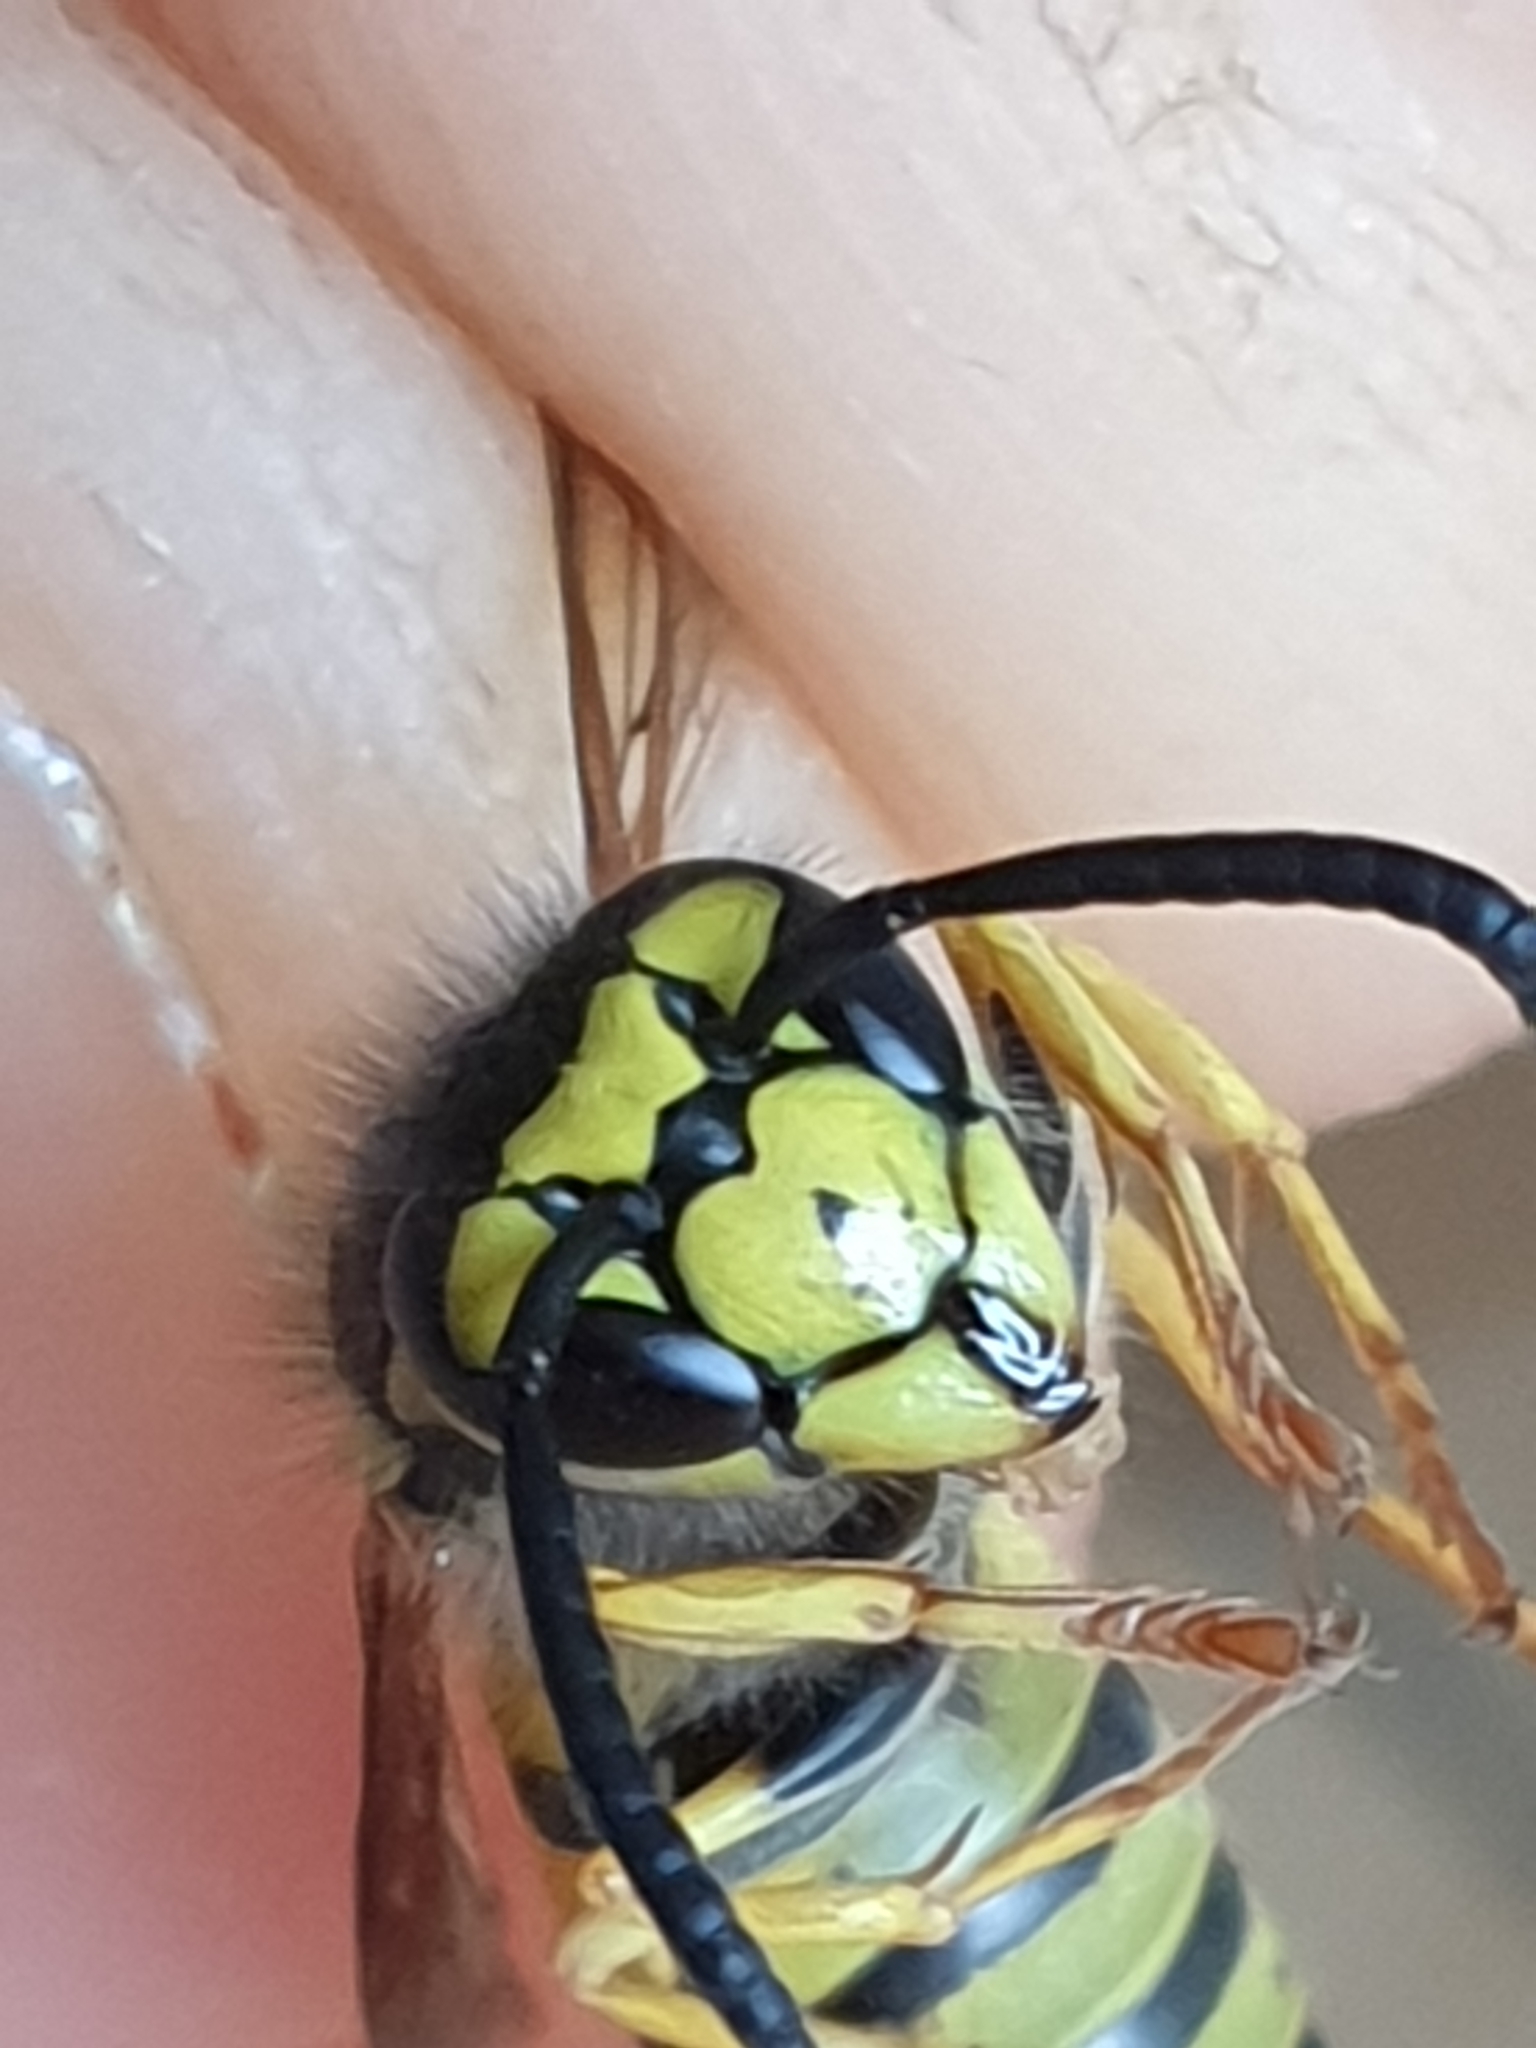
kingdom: Animalia
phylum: Arthropoda
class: Insecta
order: Hymenoptera
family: Vespidae
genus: Vespula
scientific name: Vespula germanica
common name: German wasp
